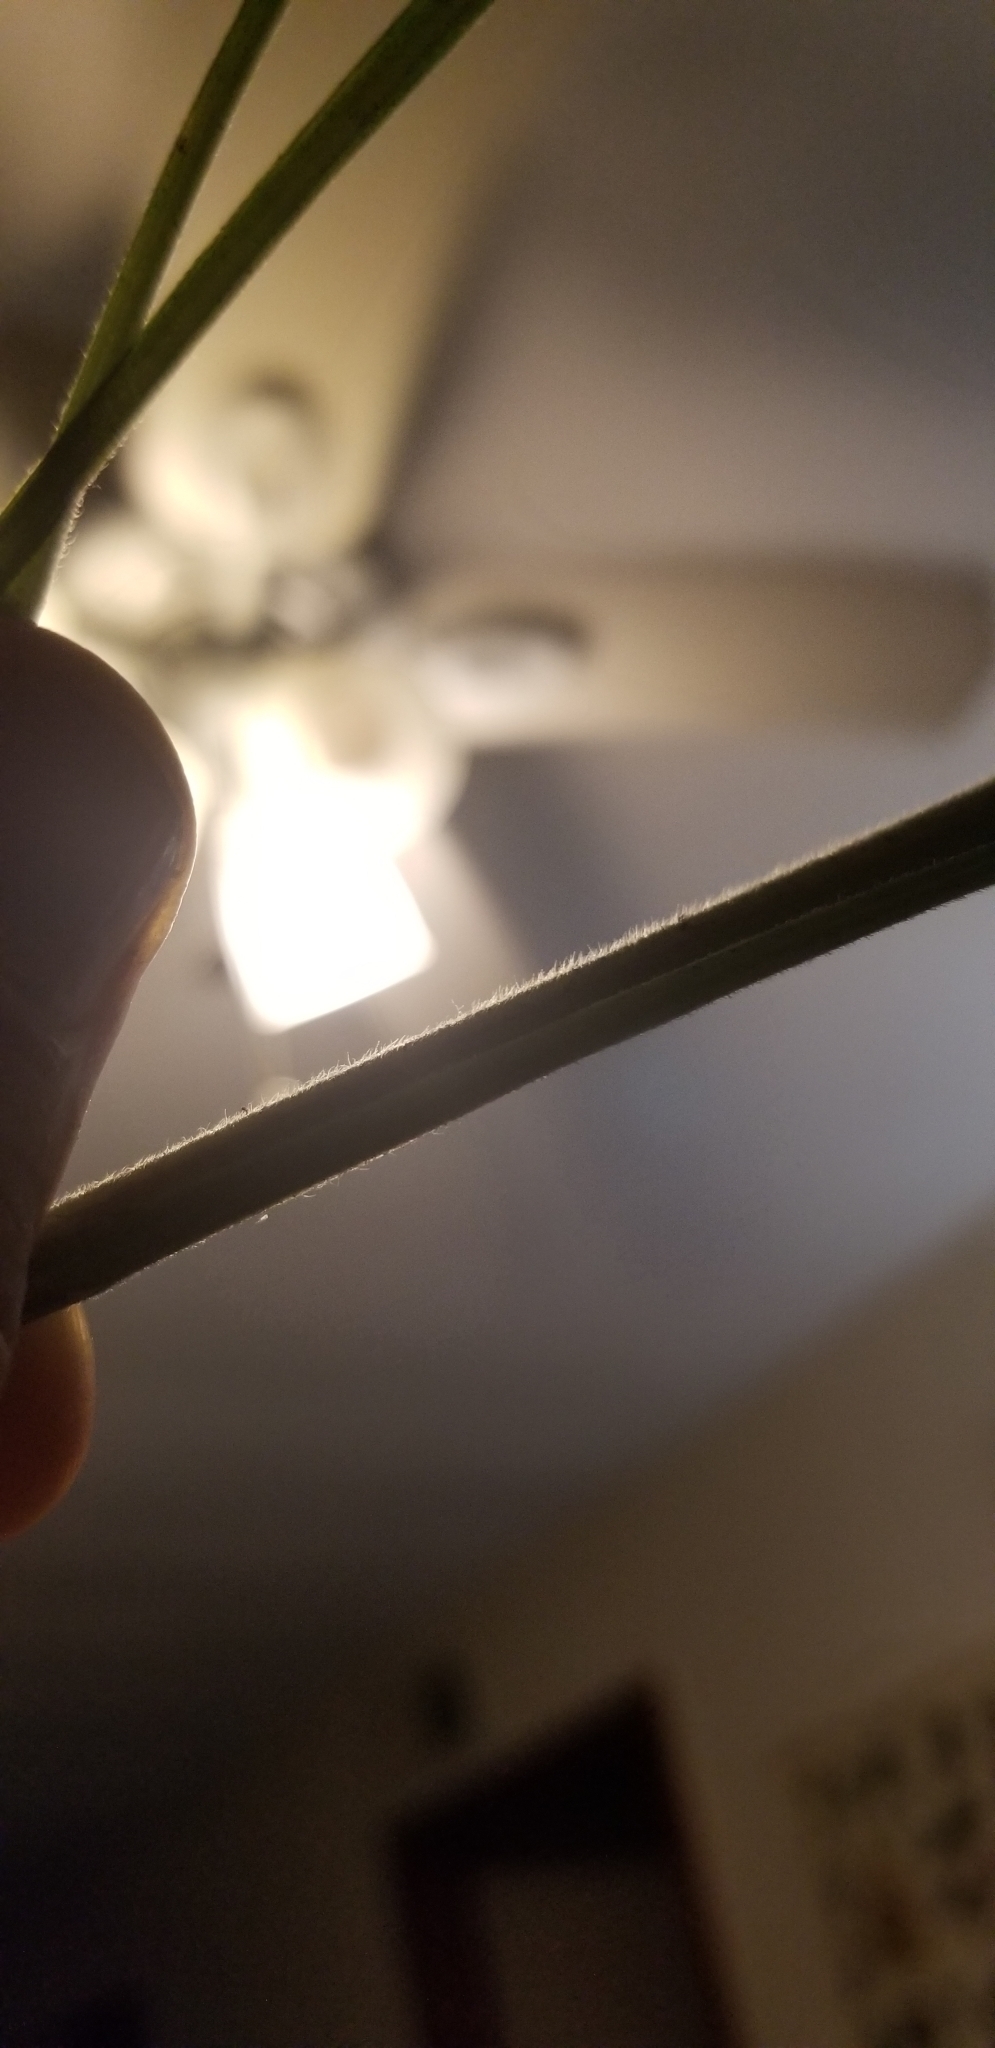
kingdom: Plantae
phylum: Tracheophyta
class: Magnoliopsida
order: Asterales
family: Asteraceae
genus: Erigeron
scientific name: Erigeron annuus
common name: Tall fleabane
